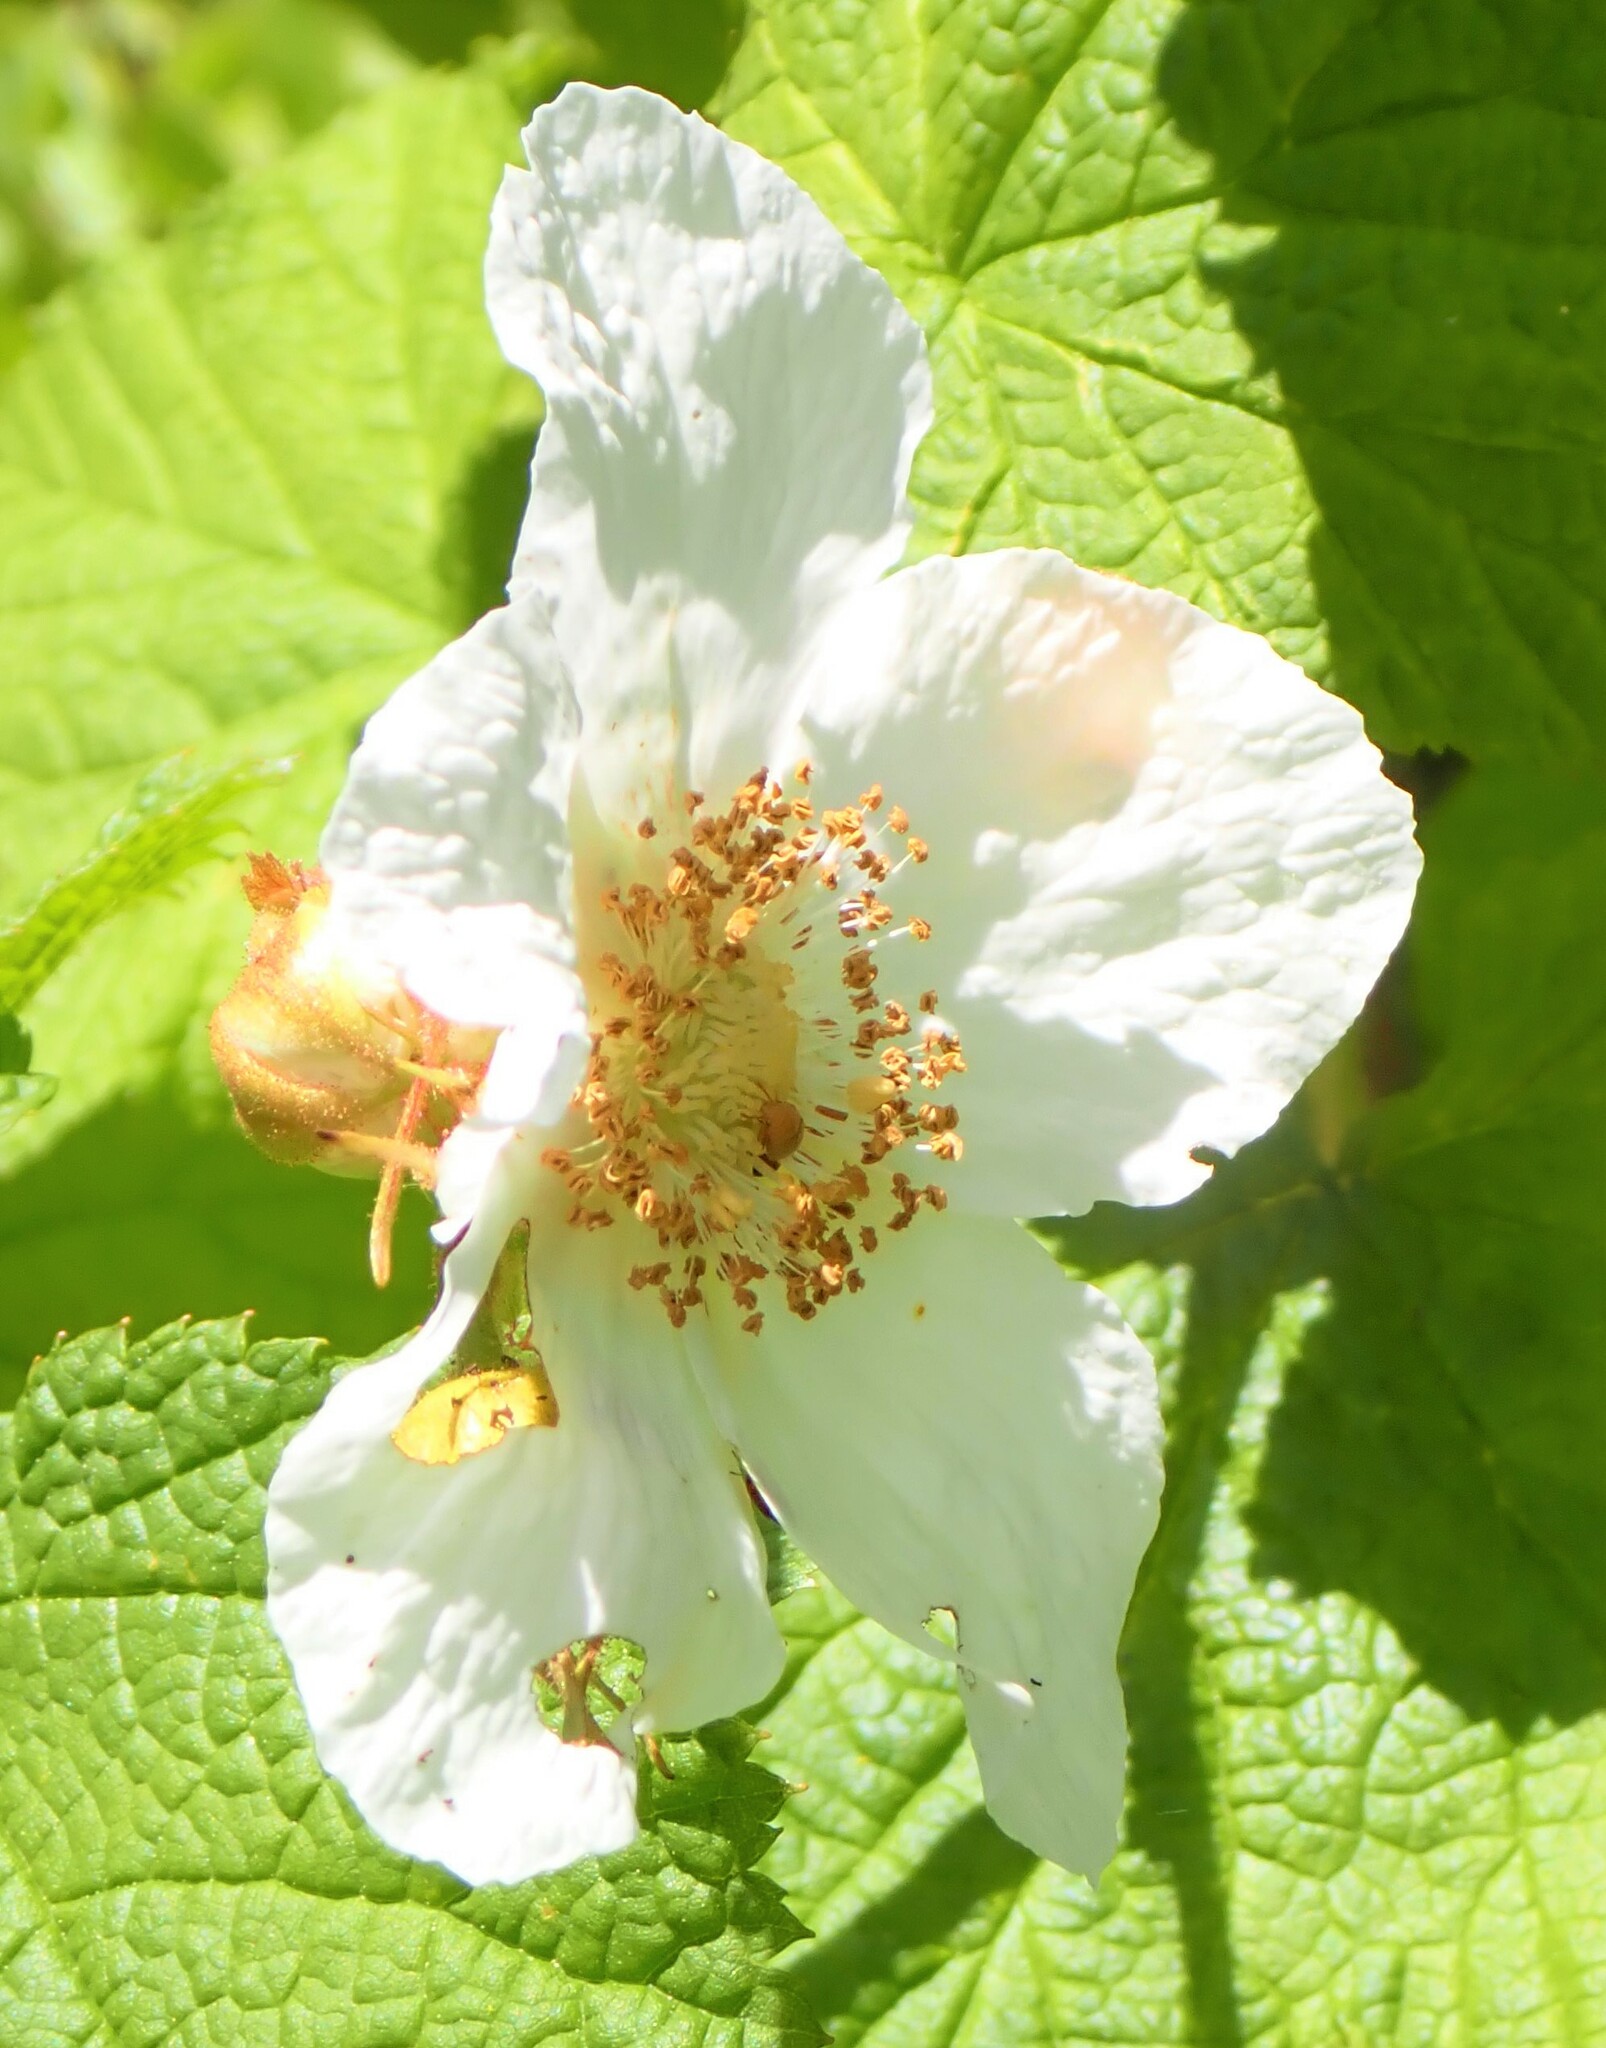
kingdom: Plantae
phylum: Tracheophyta
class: Magnoliopsida
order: Rosales
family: Rosaceae
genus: Rubus
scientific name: Rubus parviflorus
